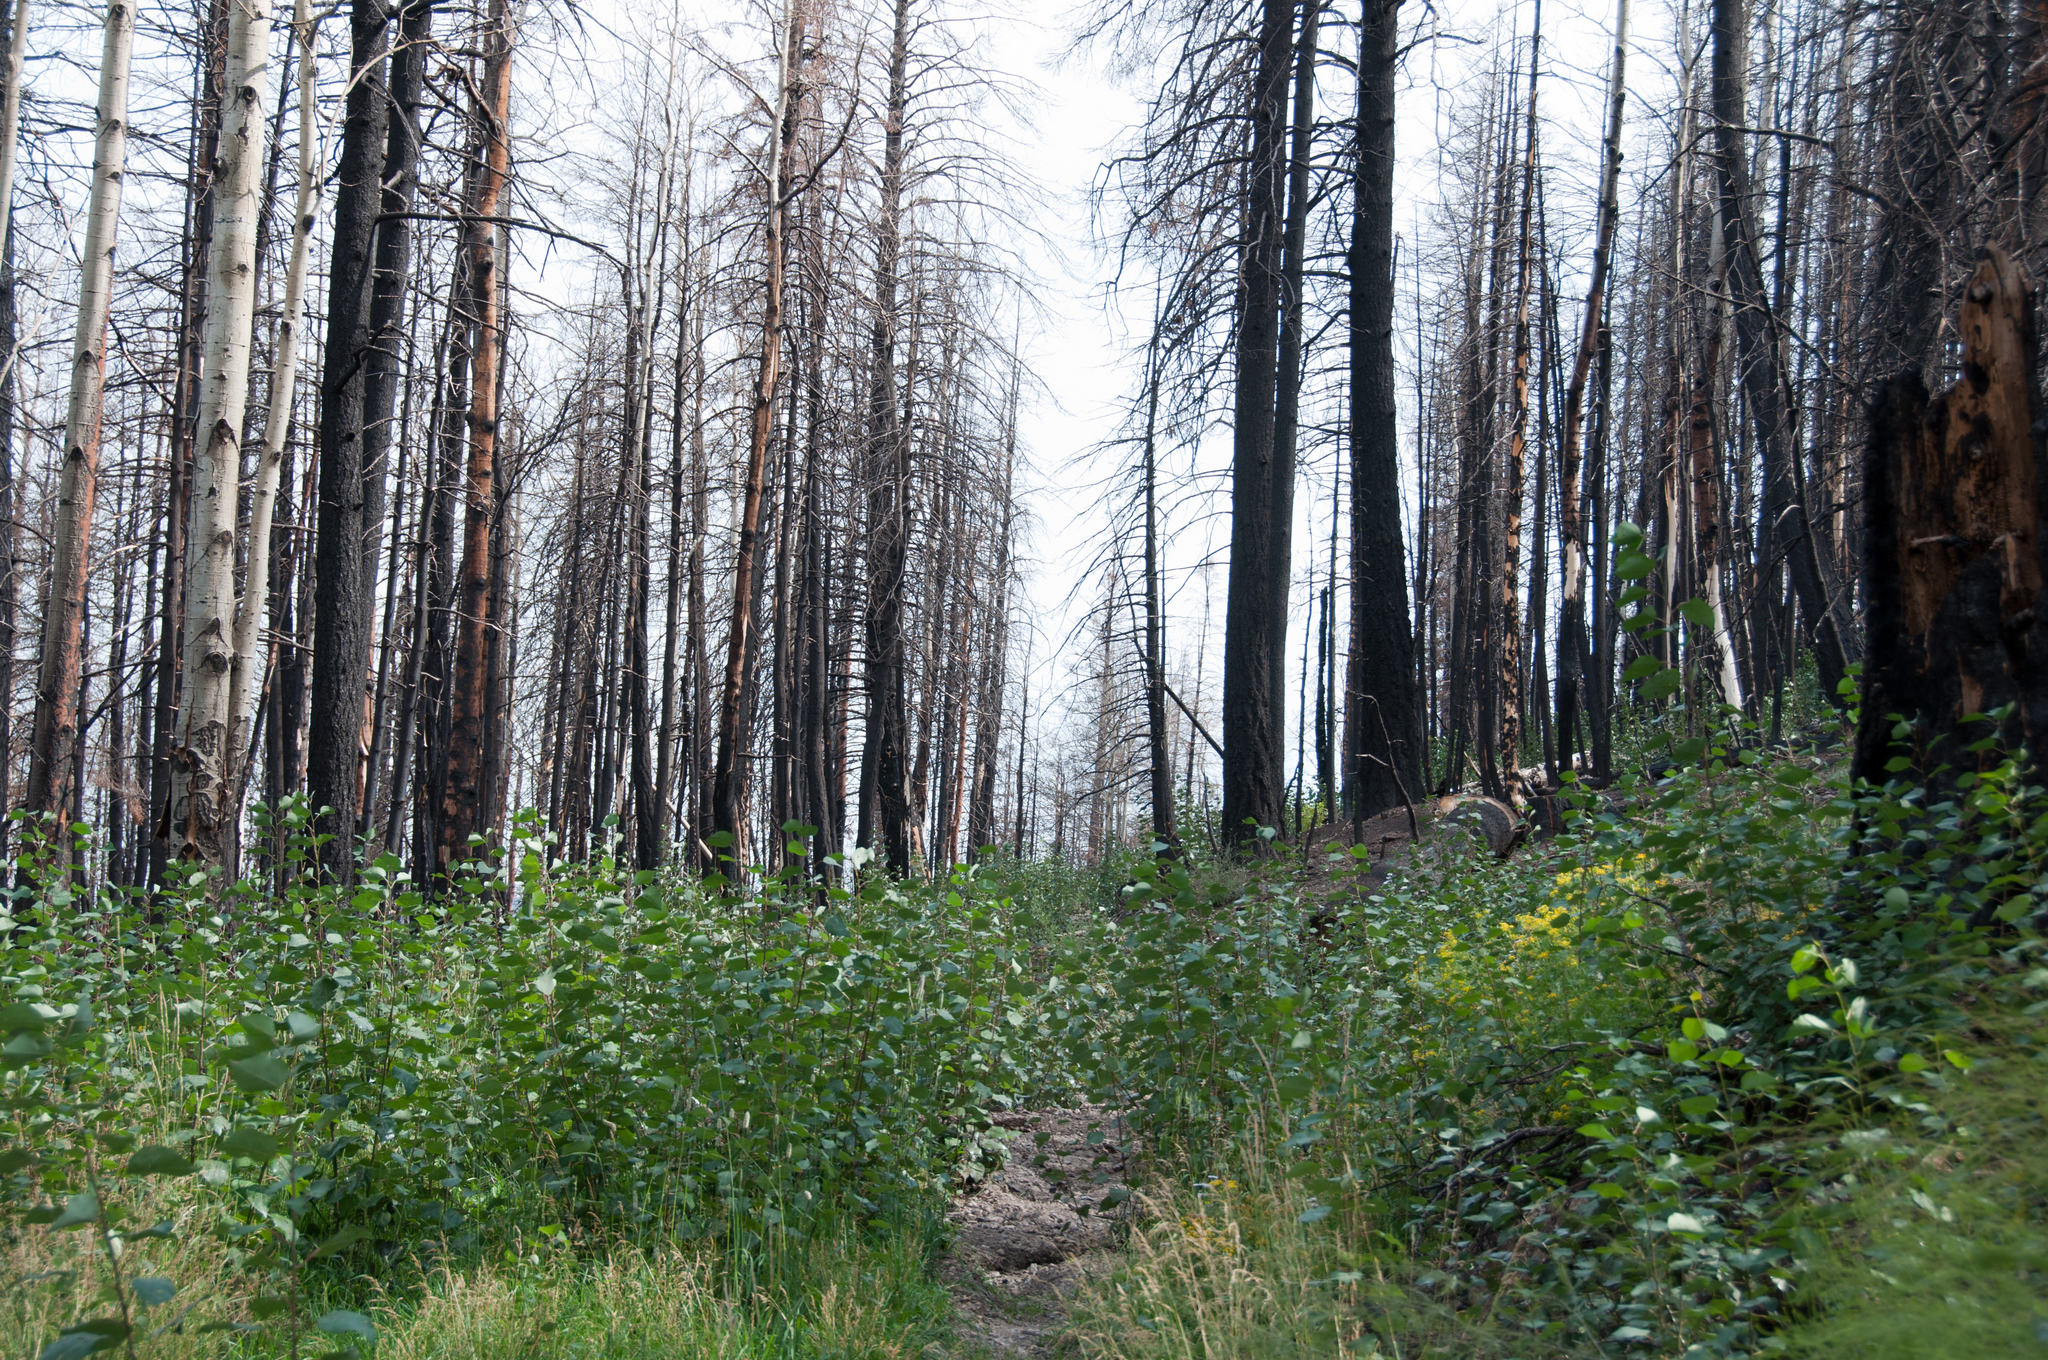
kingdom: Plantae
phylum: Tracheophyta
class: Magnoliopsida
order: Malpighiales
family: Salicaceae
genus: Populus
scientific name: Populus tremuloides
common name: Quaking aspen
